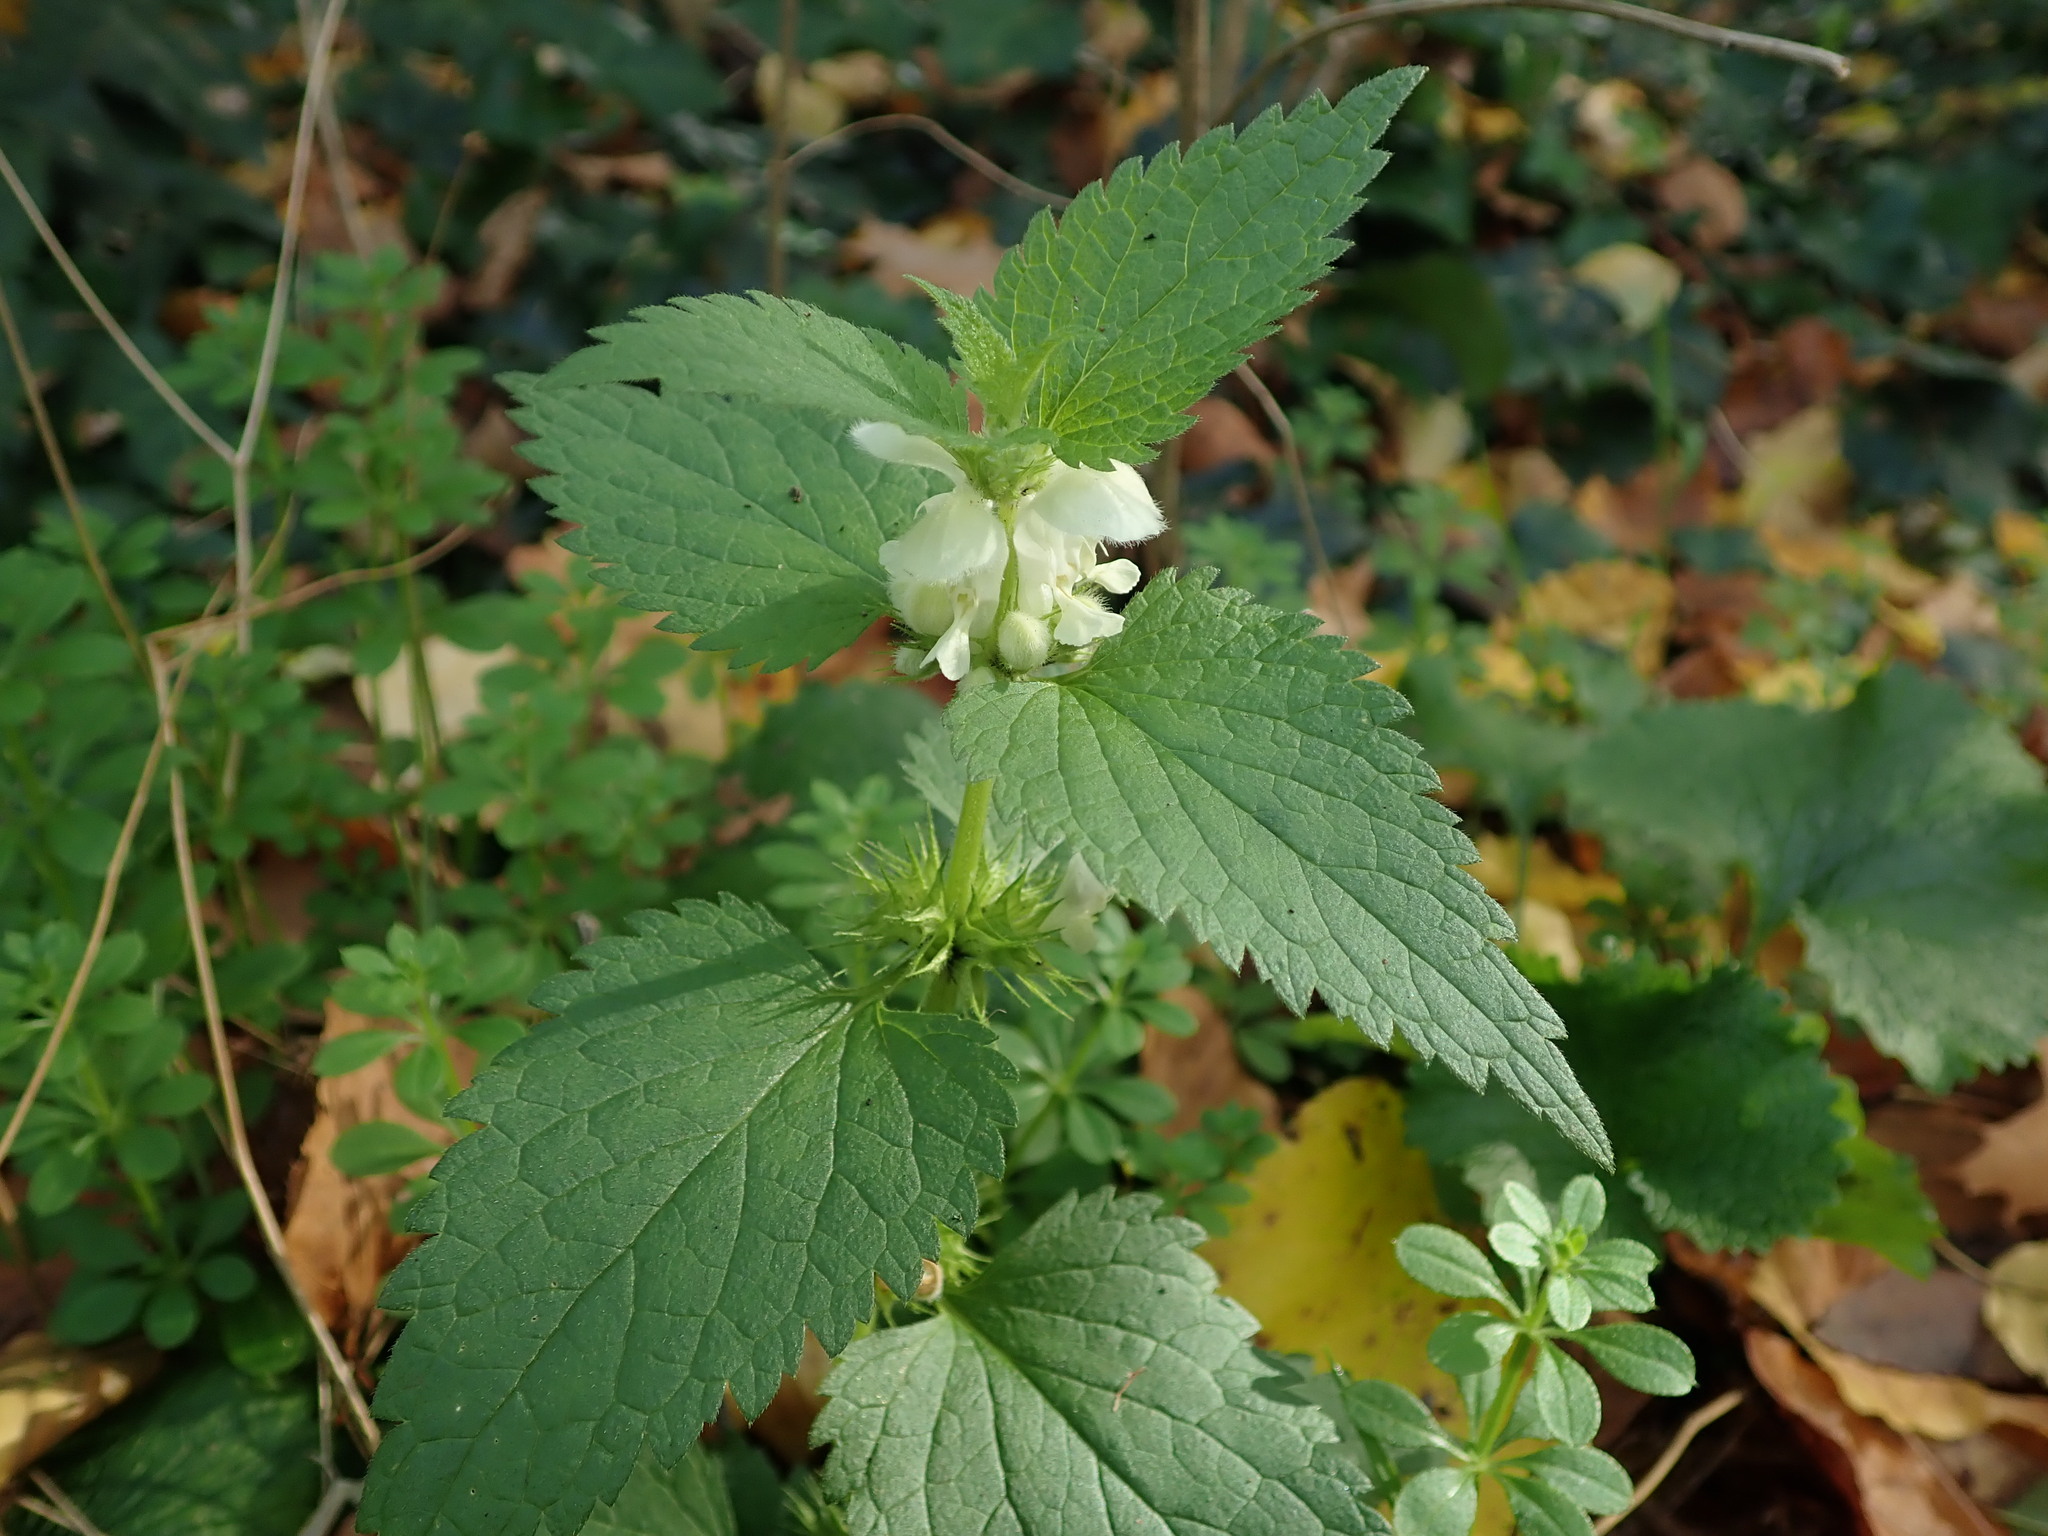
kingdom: Plantae
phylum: Tracheophyta
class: Magnoliopsida
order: Lamiales
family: Lamiaceae
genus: Lamium
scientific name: Lamium album
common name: White dead-nettle
